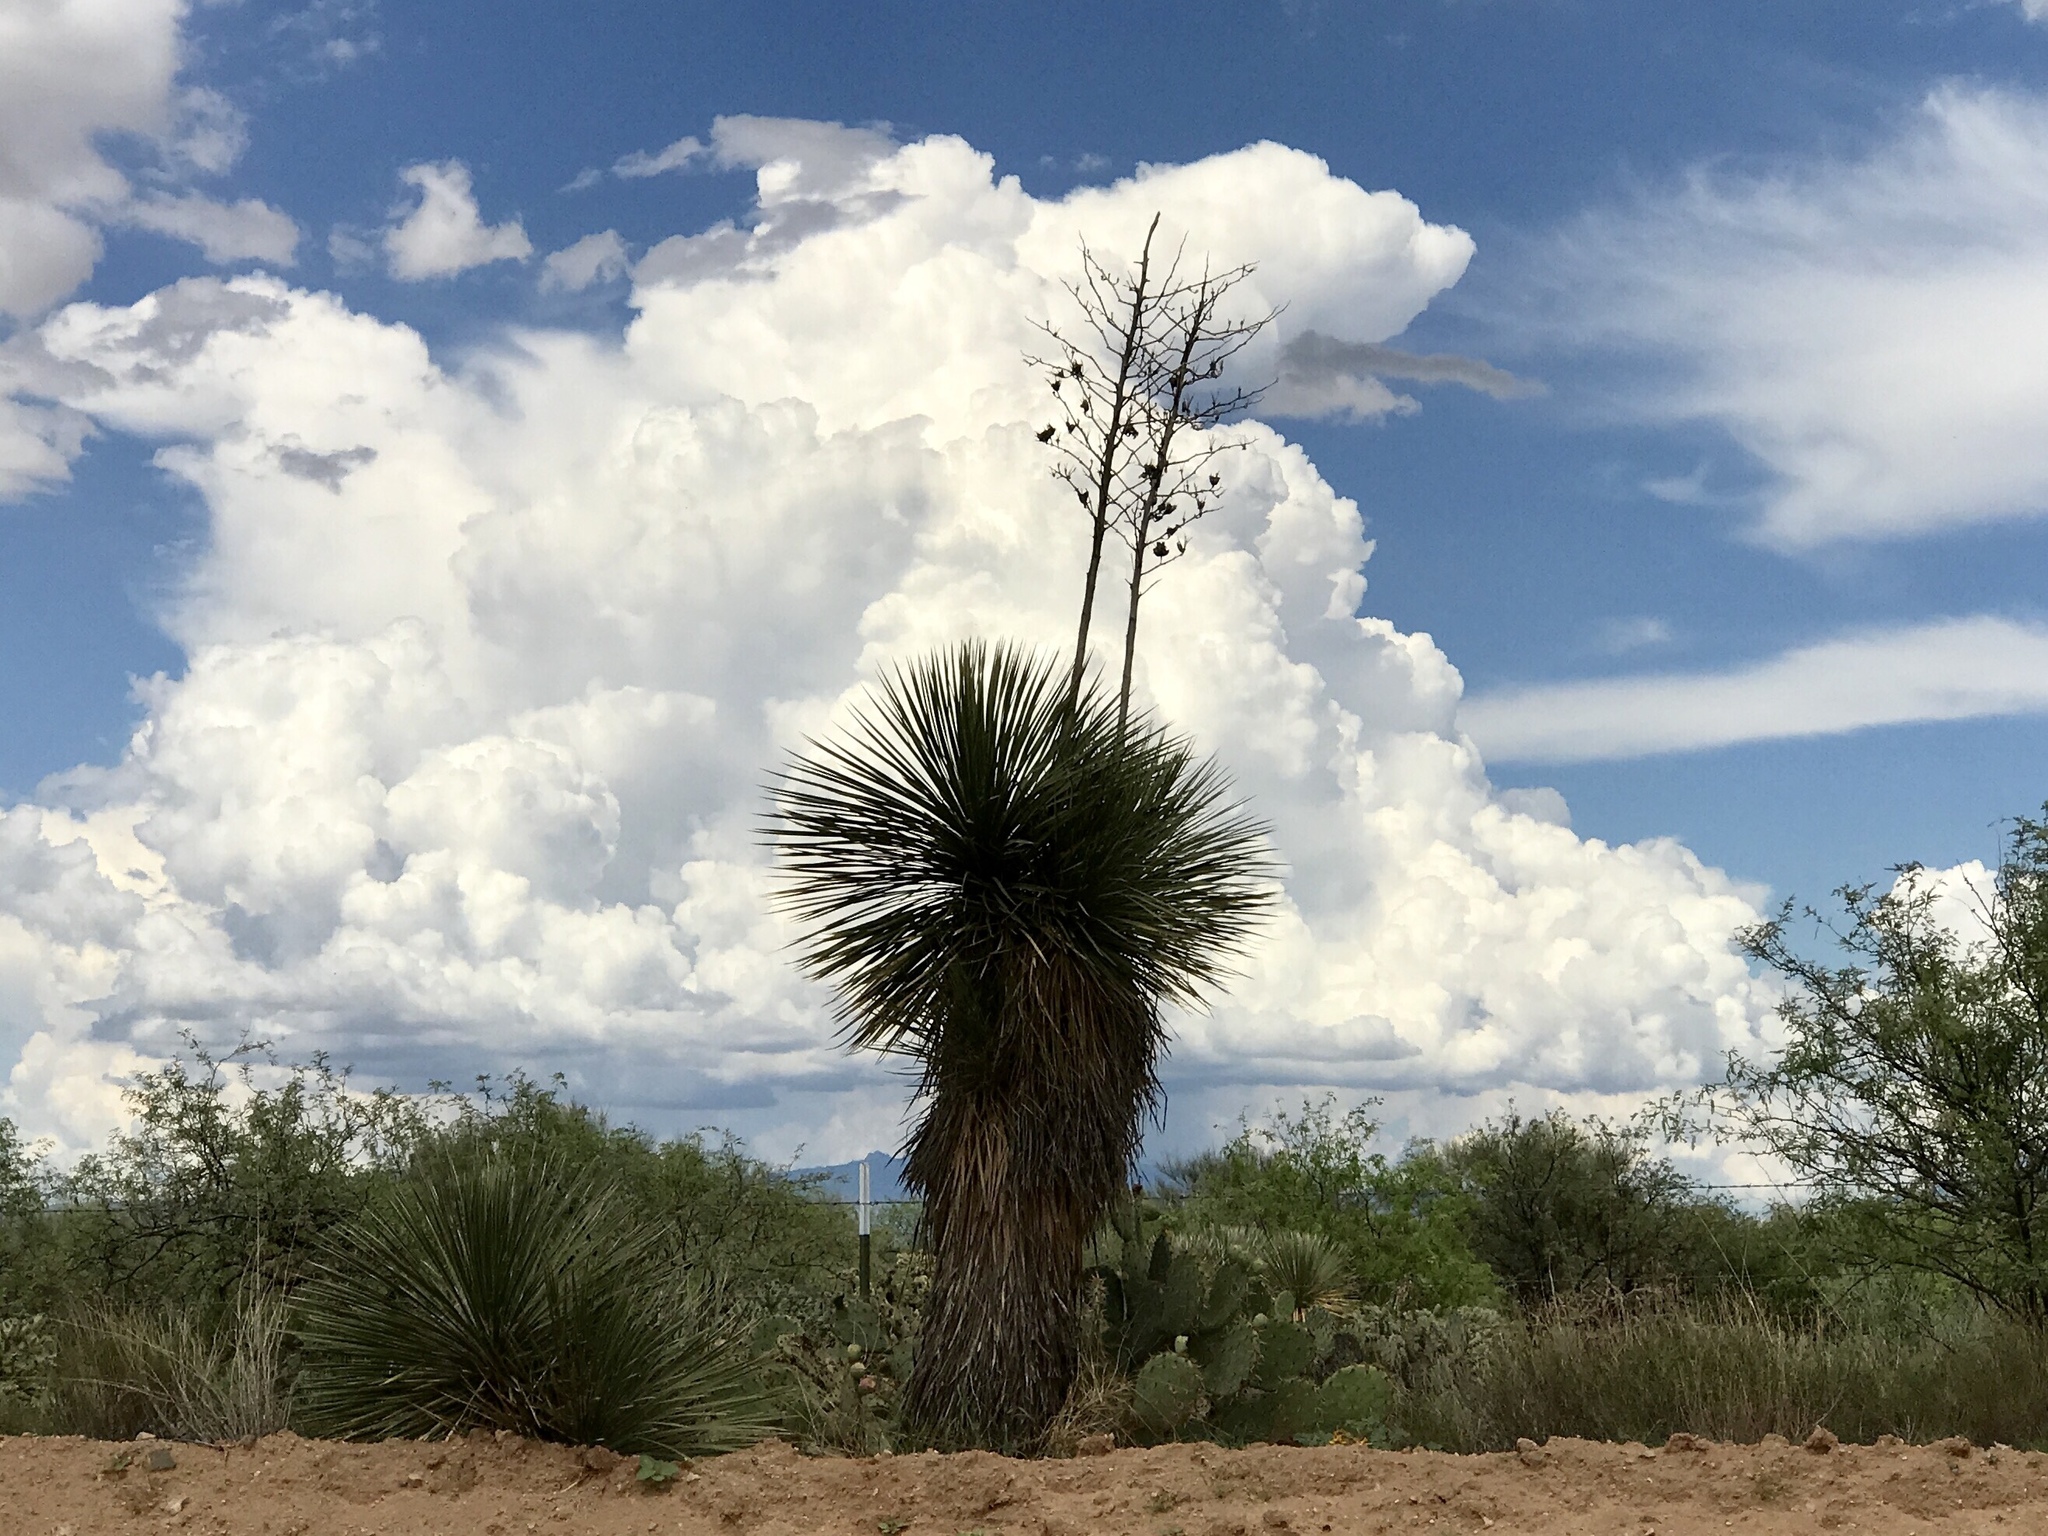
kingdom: Plantae
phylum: Tracheophyta
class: Liliopsida
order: Asparagales
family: Asparagaceae
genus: Yucca
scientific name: Yucca elata
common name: Palmella
